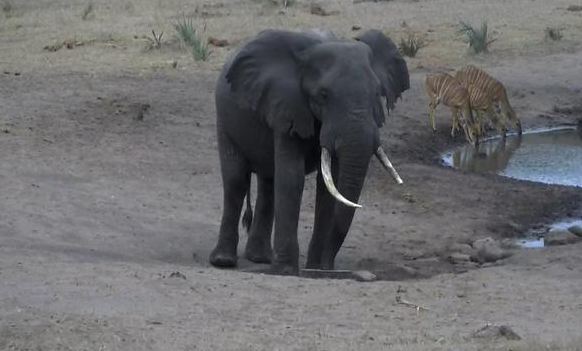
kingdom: Animalia
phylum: Chordata
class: Mammalia
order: Proboscidea
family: Elephantidae
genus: Loxodonta
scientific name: Loxodonta africana
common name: African elephant
